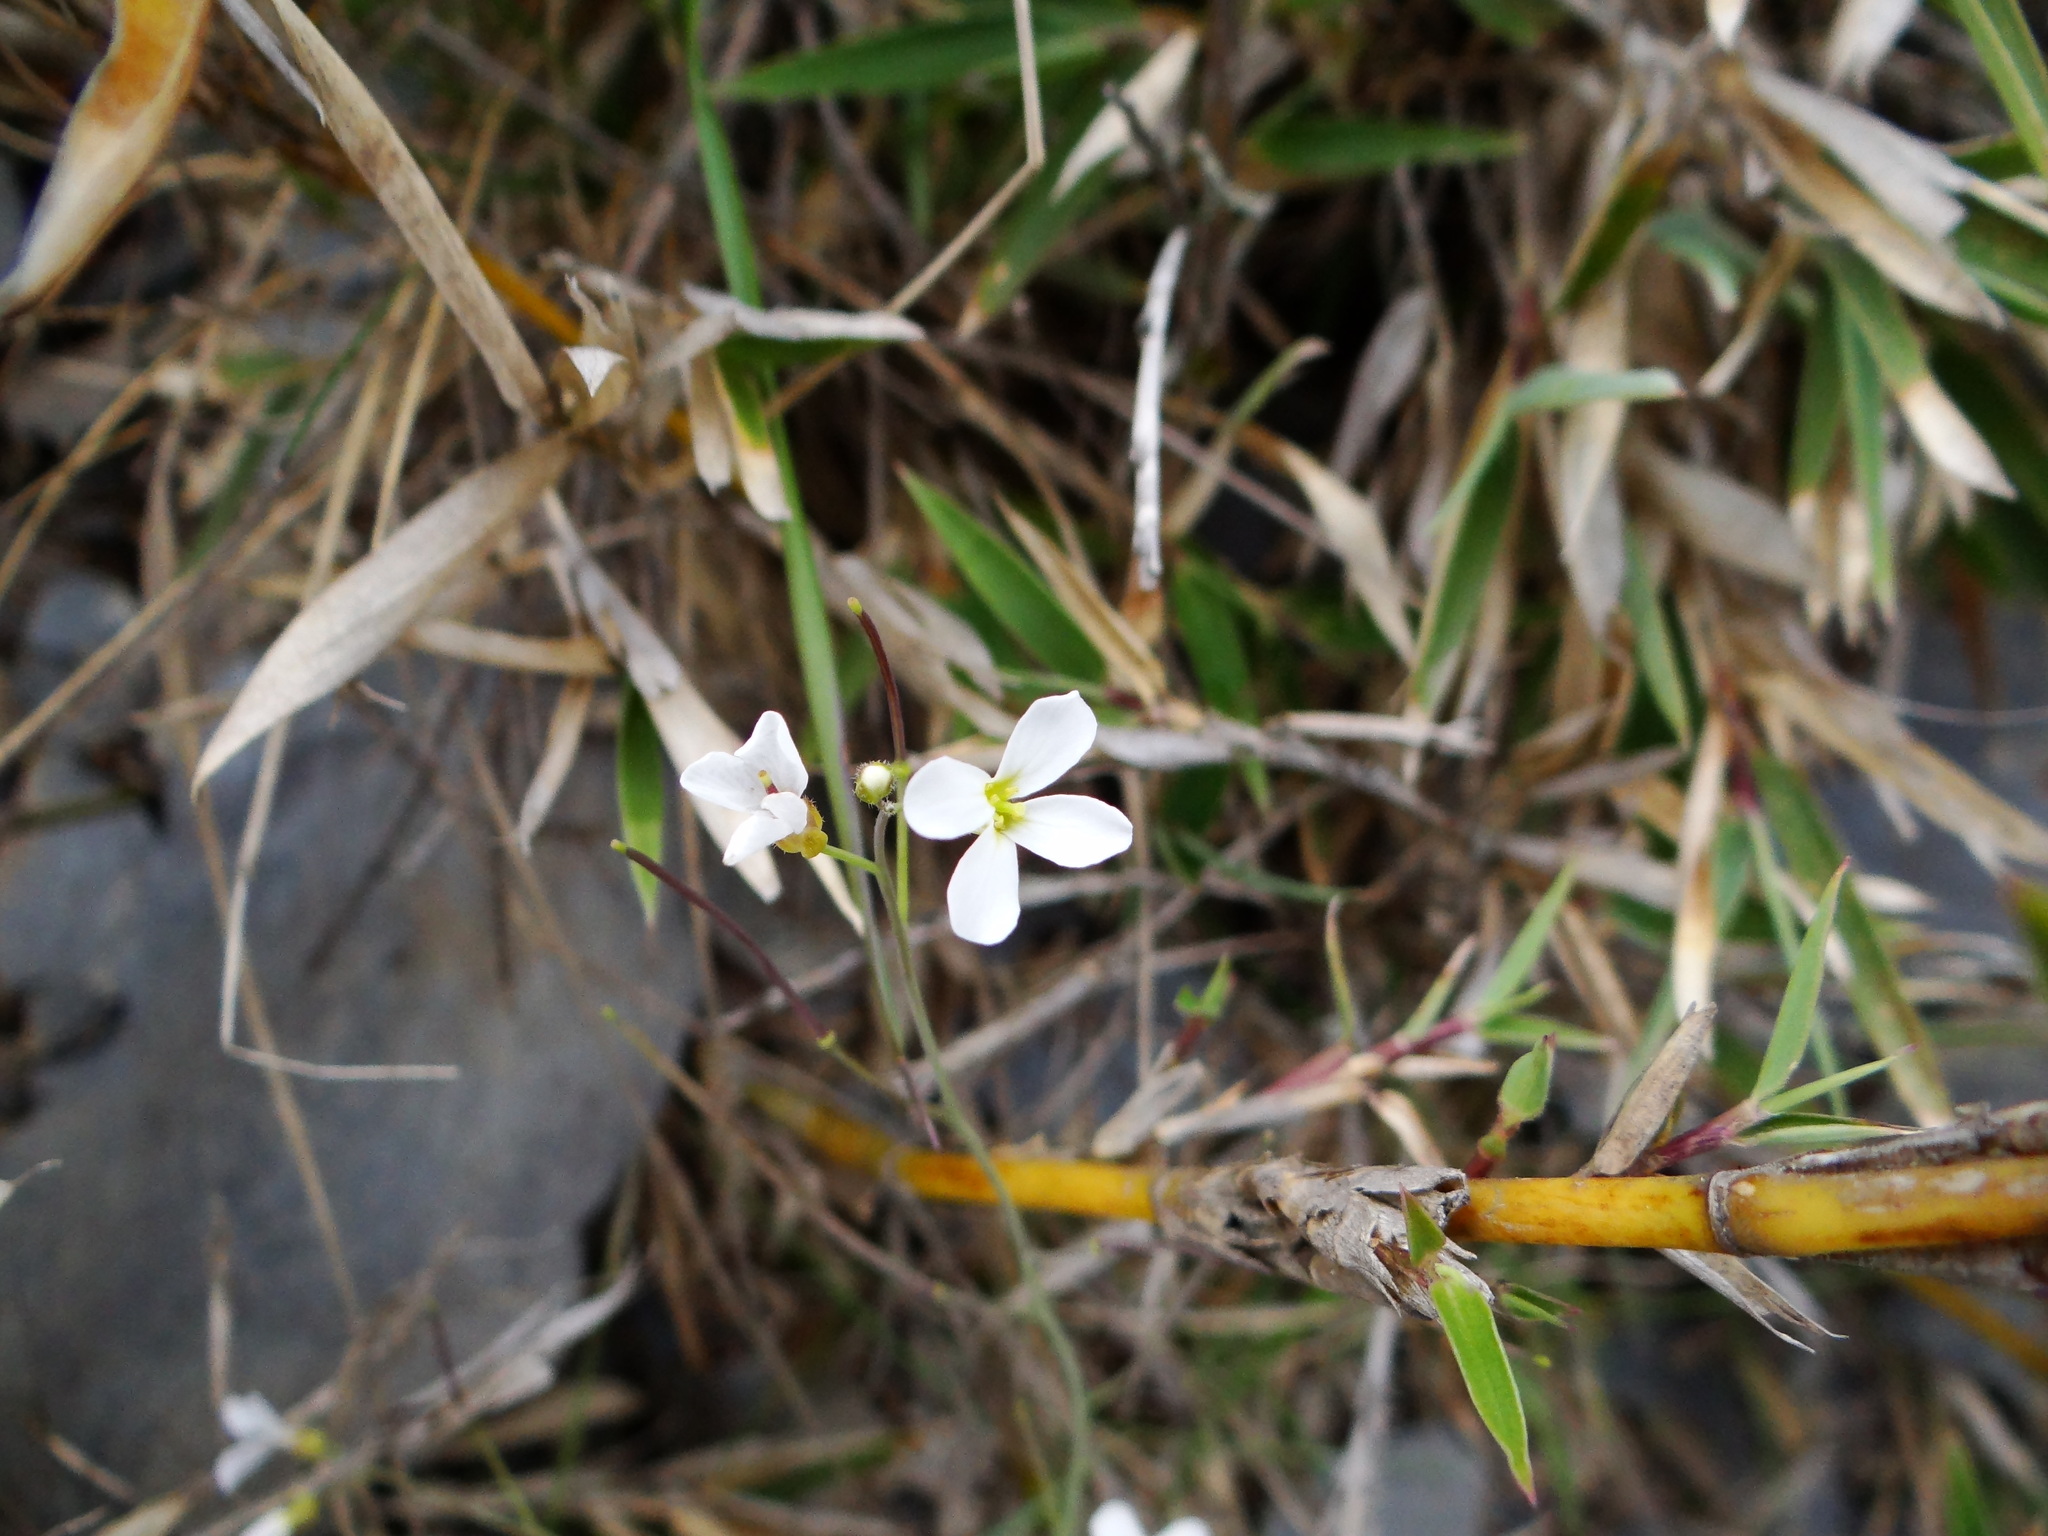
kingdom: Plantae
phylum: Tracheophyta
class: Magnoliopsida
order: Brassicales
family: Brassicaceae
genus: Arabidopsis
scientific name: Arabidopsis lyrata
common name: Lyrate rockcress
